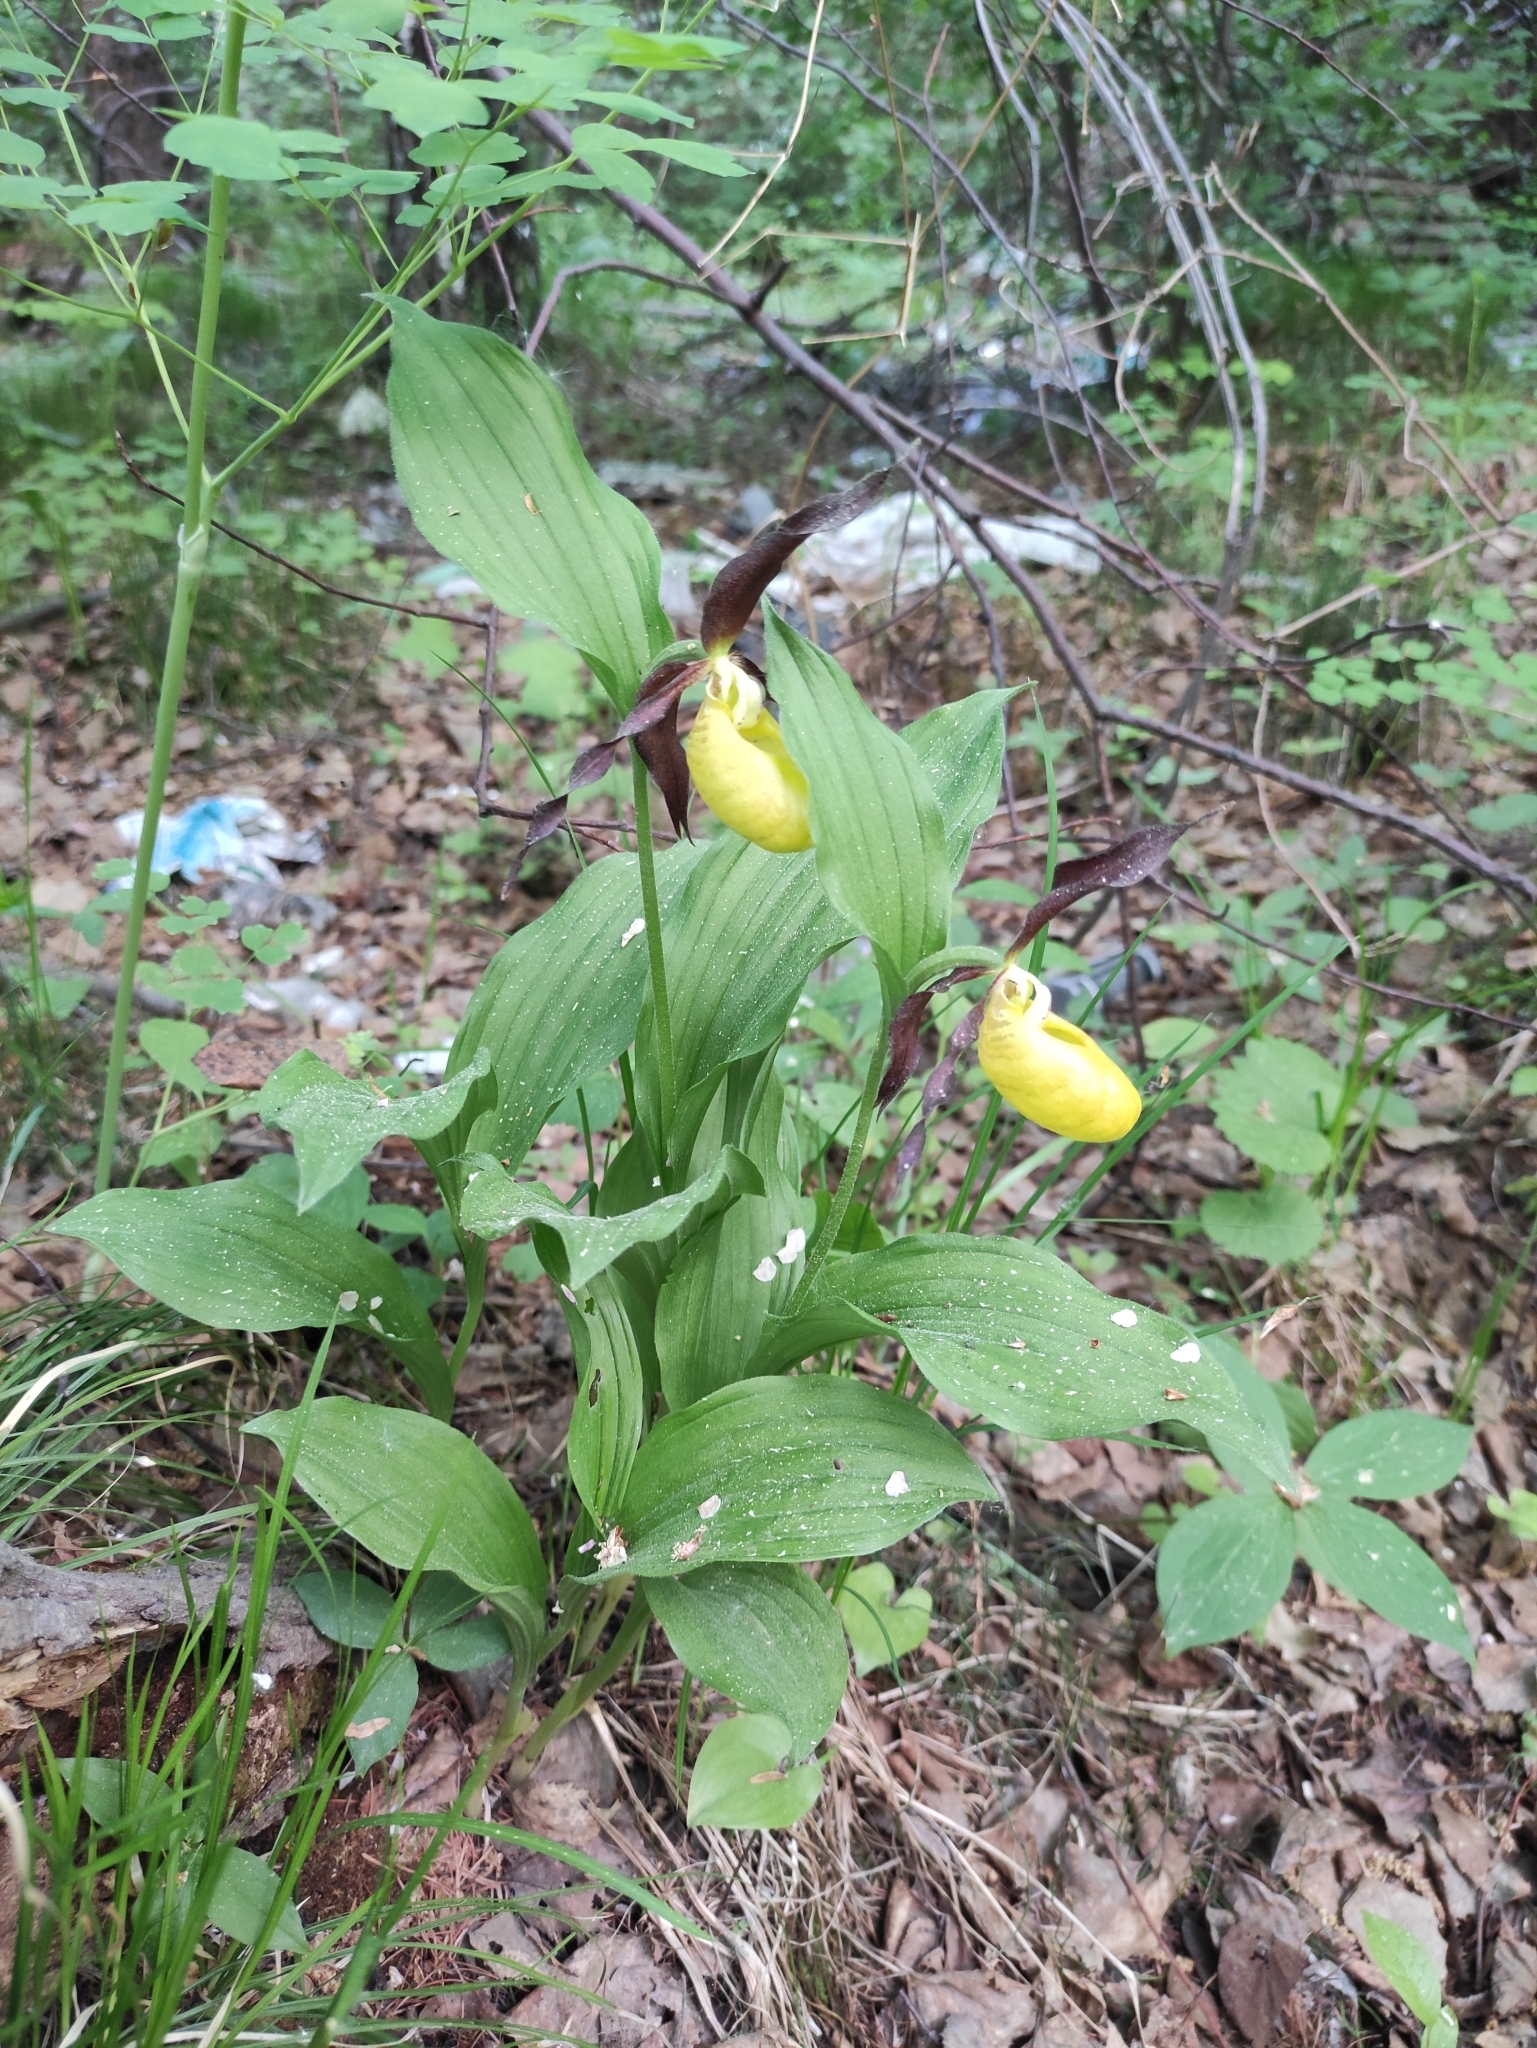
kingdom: Plantae
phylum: Tracheophyta
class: Liliopsida
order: Asparagales
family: Orchidaceae
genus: Cypripedium
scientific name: Cypripedium calceolus
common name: Lady's-slipper
